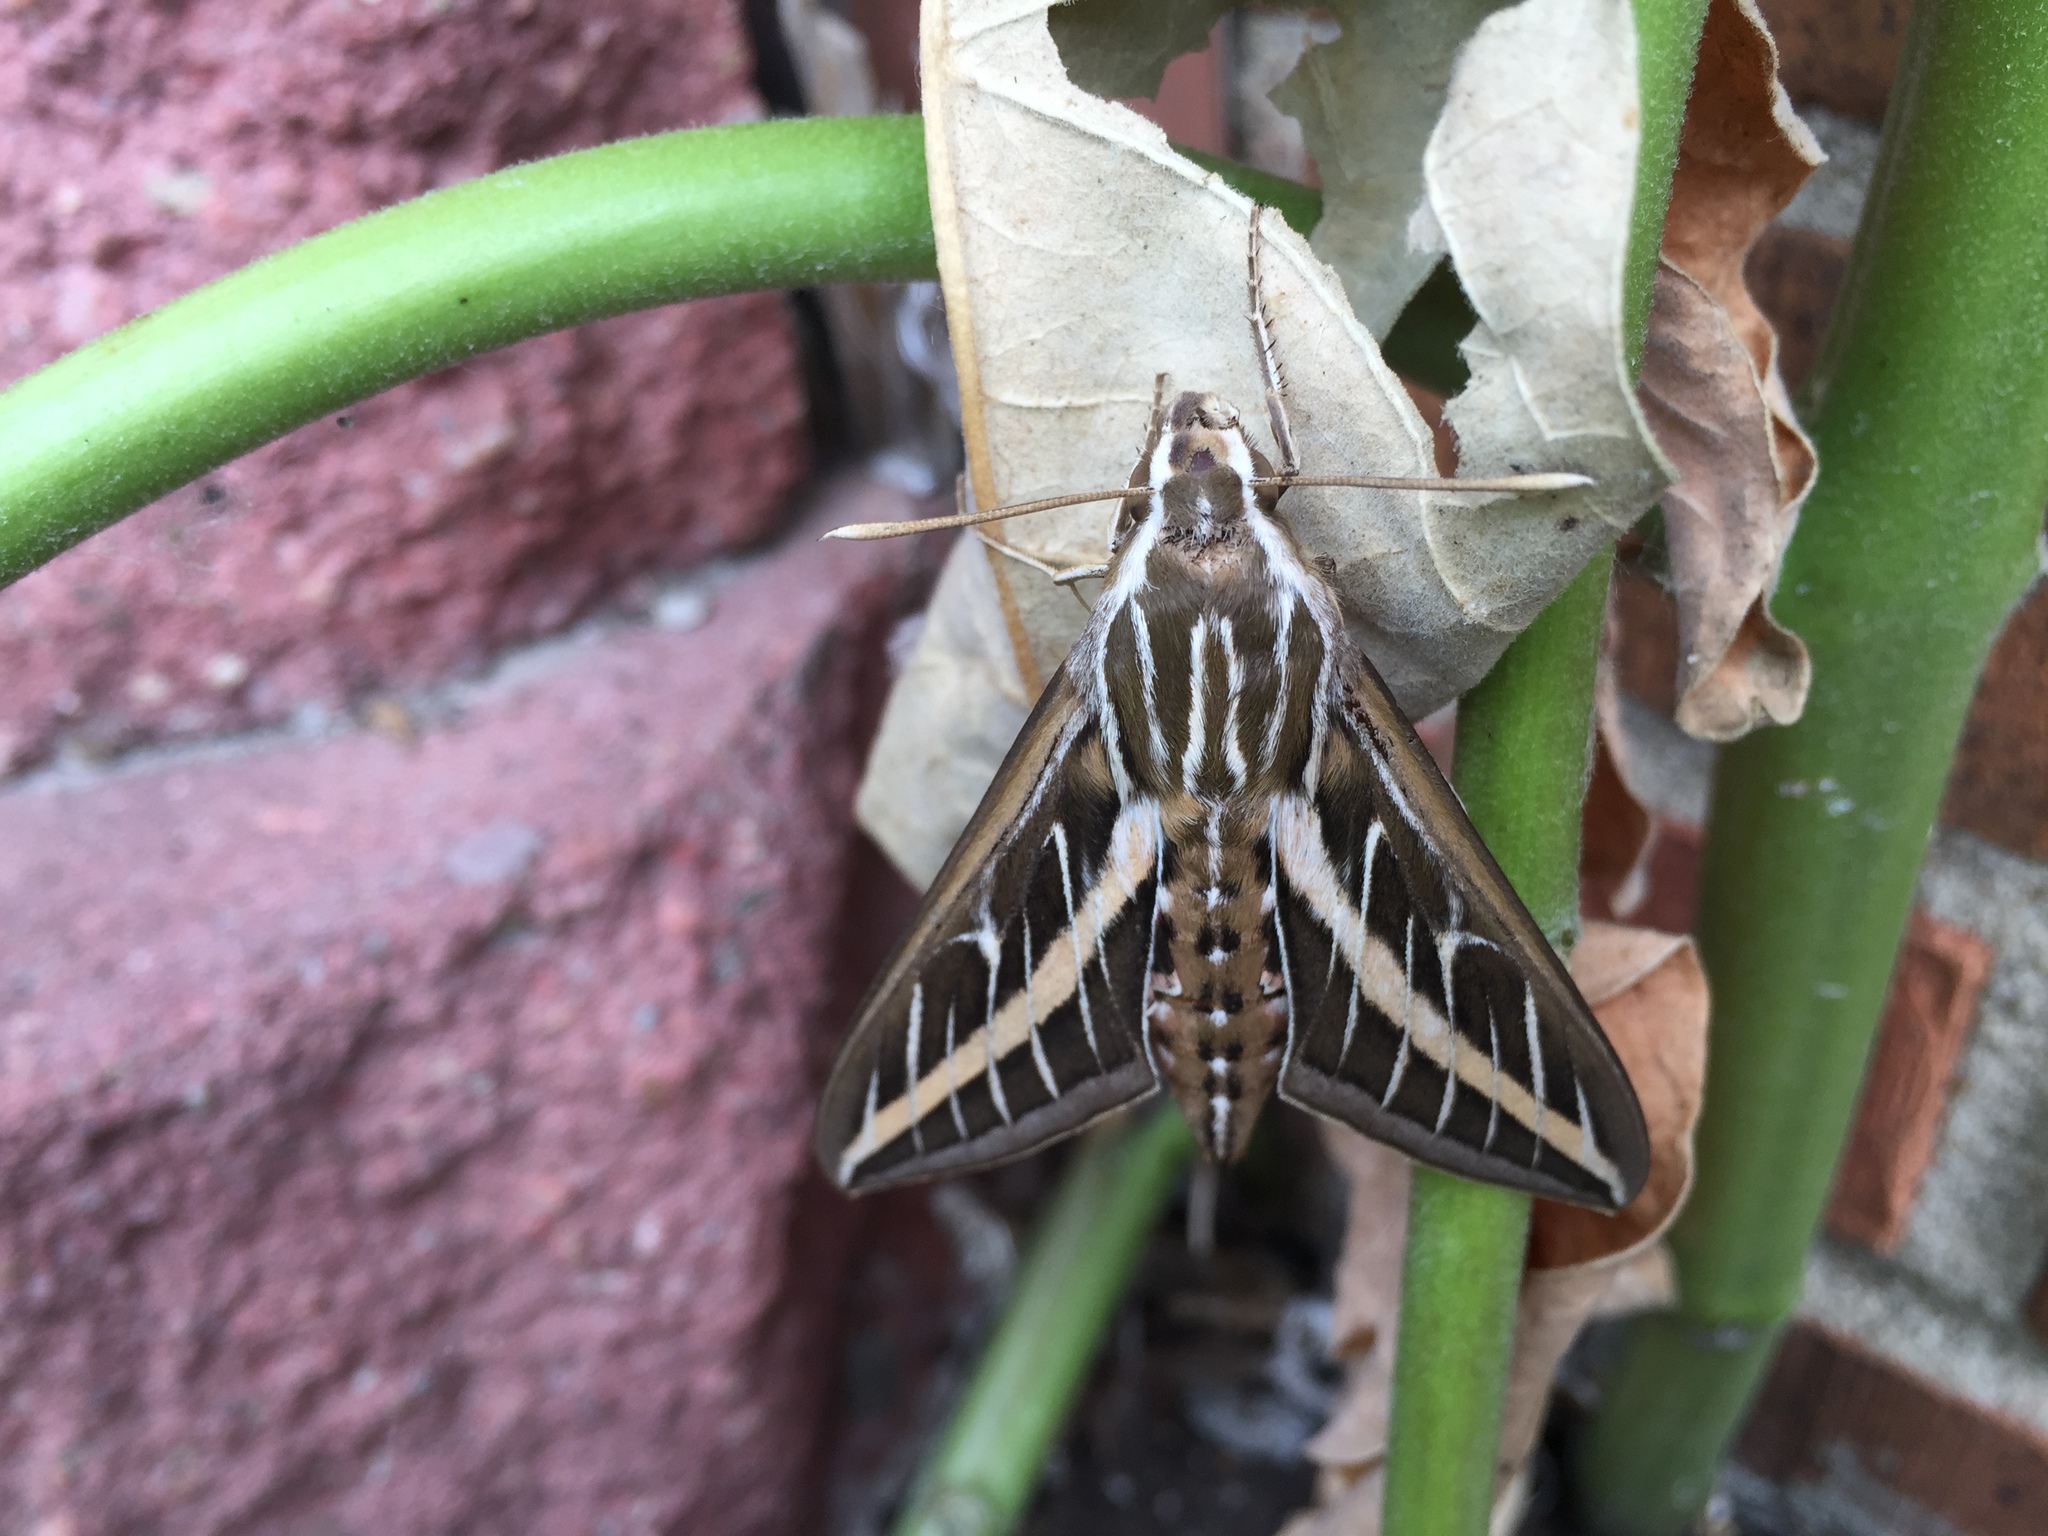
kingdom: Animalia
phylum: Arthropoda
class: Insecta
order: Lepidoptera
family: Sphingidae
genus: Hyles
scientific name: Hyles lineata
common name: White-lined sphinx
